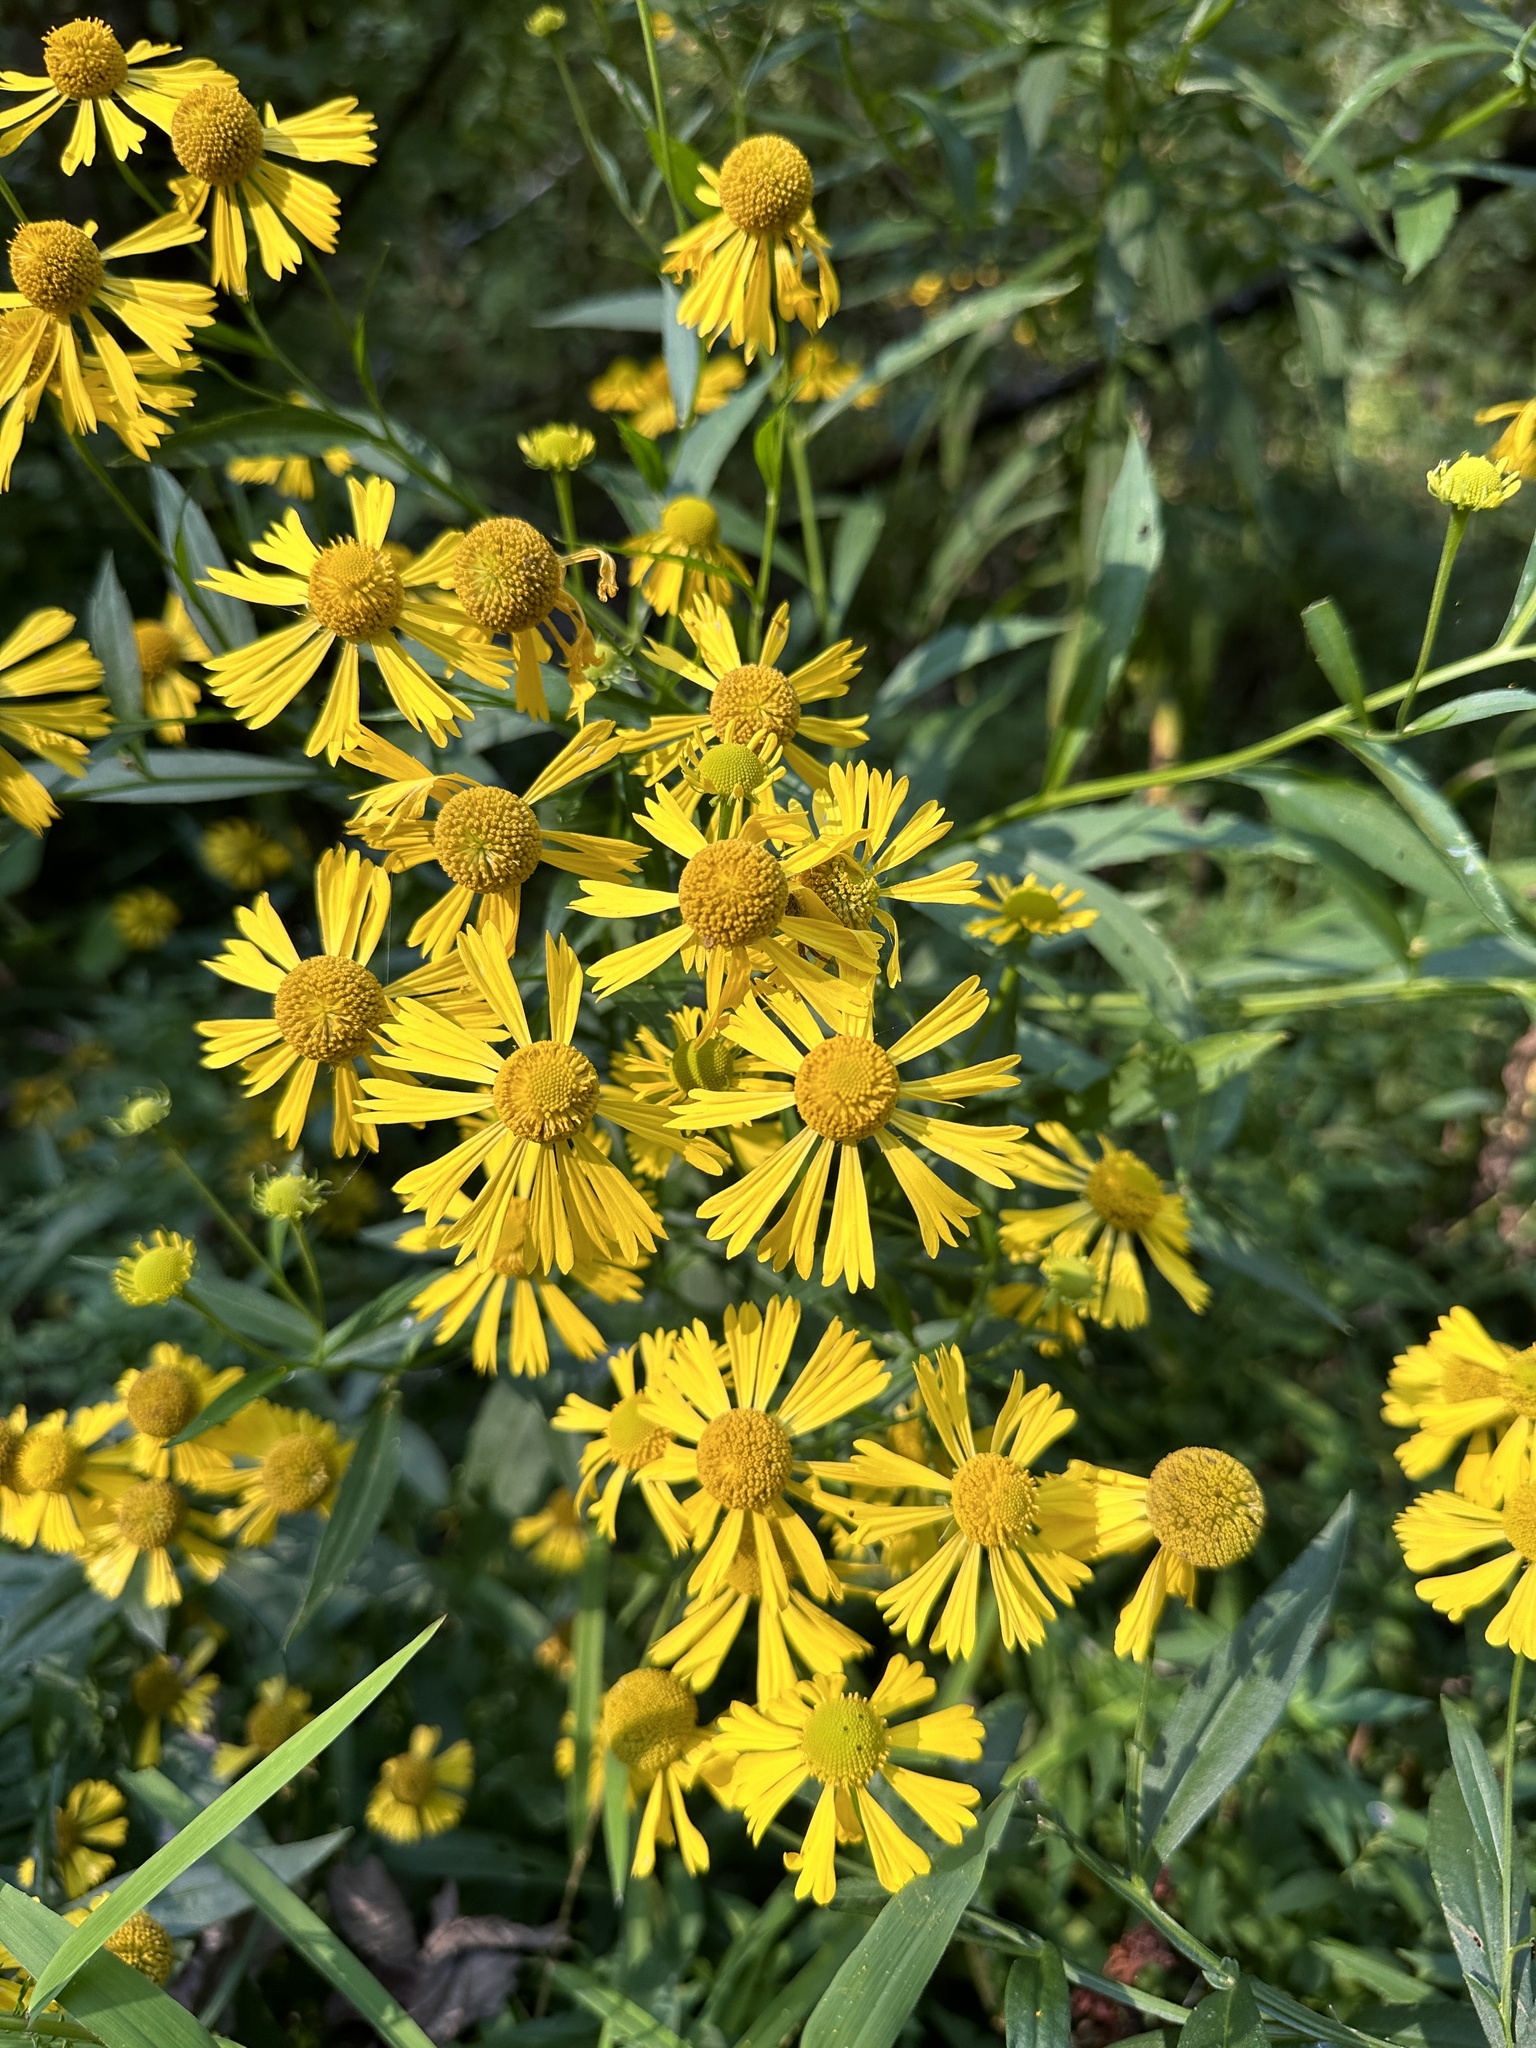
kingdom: Plantae
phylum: Tracheophyta
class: Magnoliopsida
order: Asterales
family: Asteraceae
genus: Helenium
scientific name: Helenium autumnale
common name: Sneezeweed
